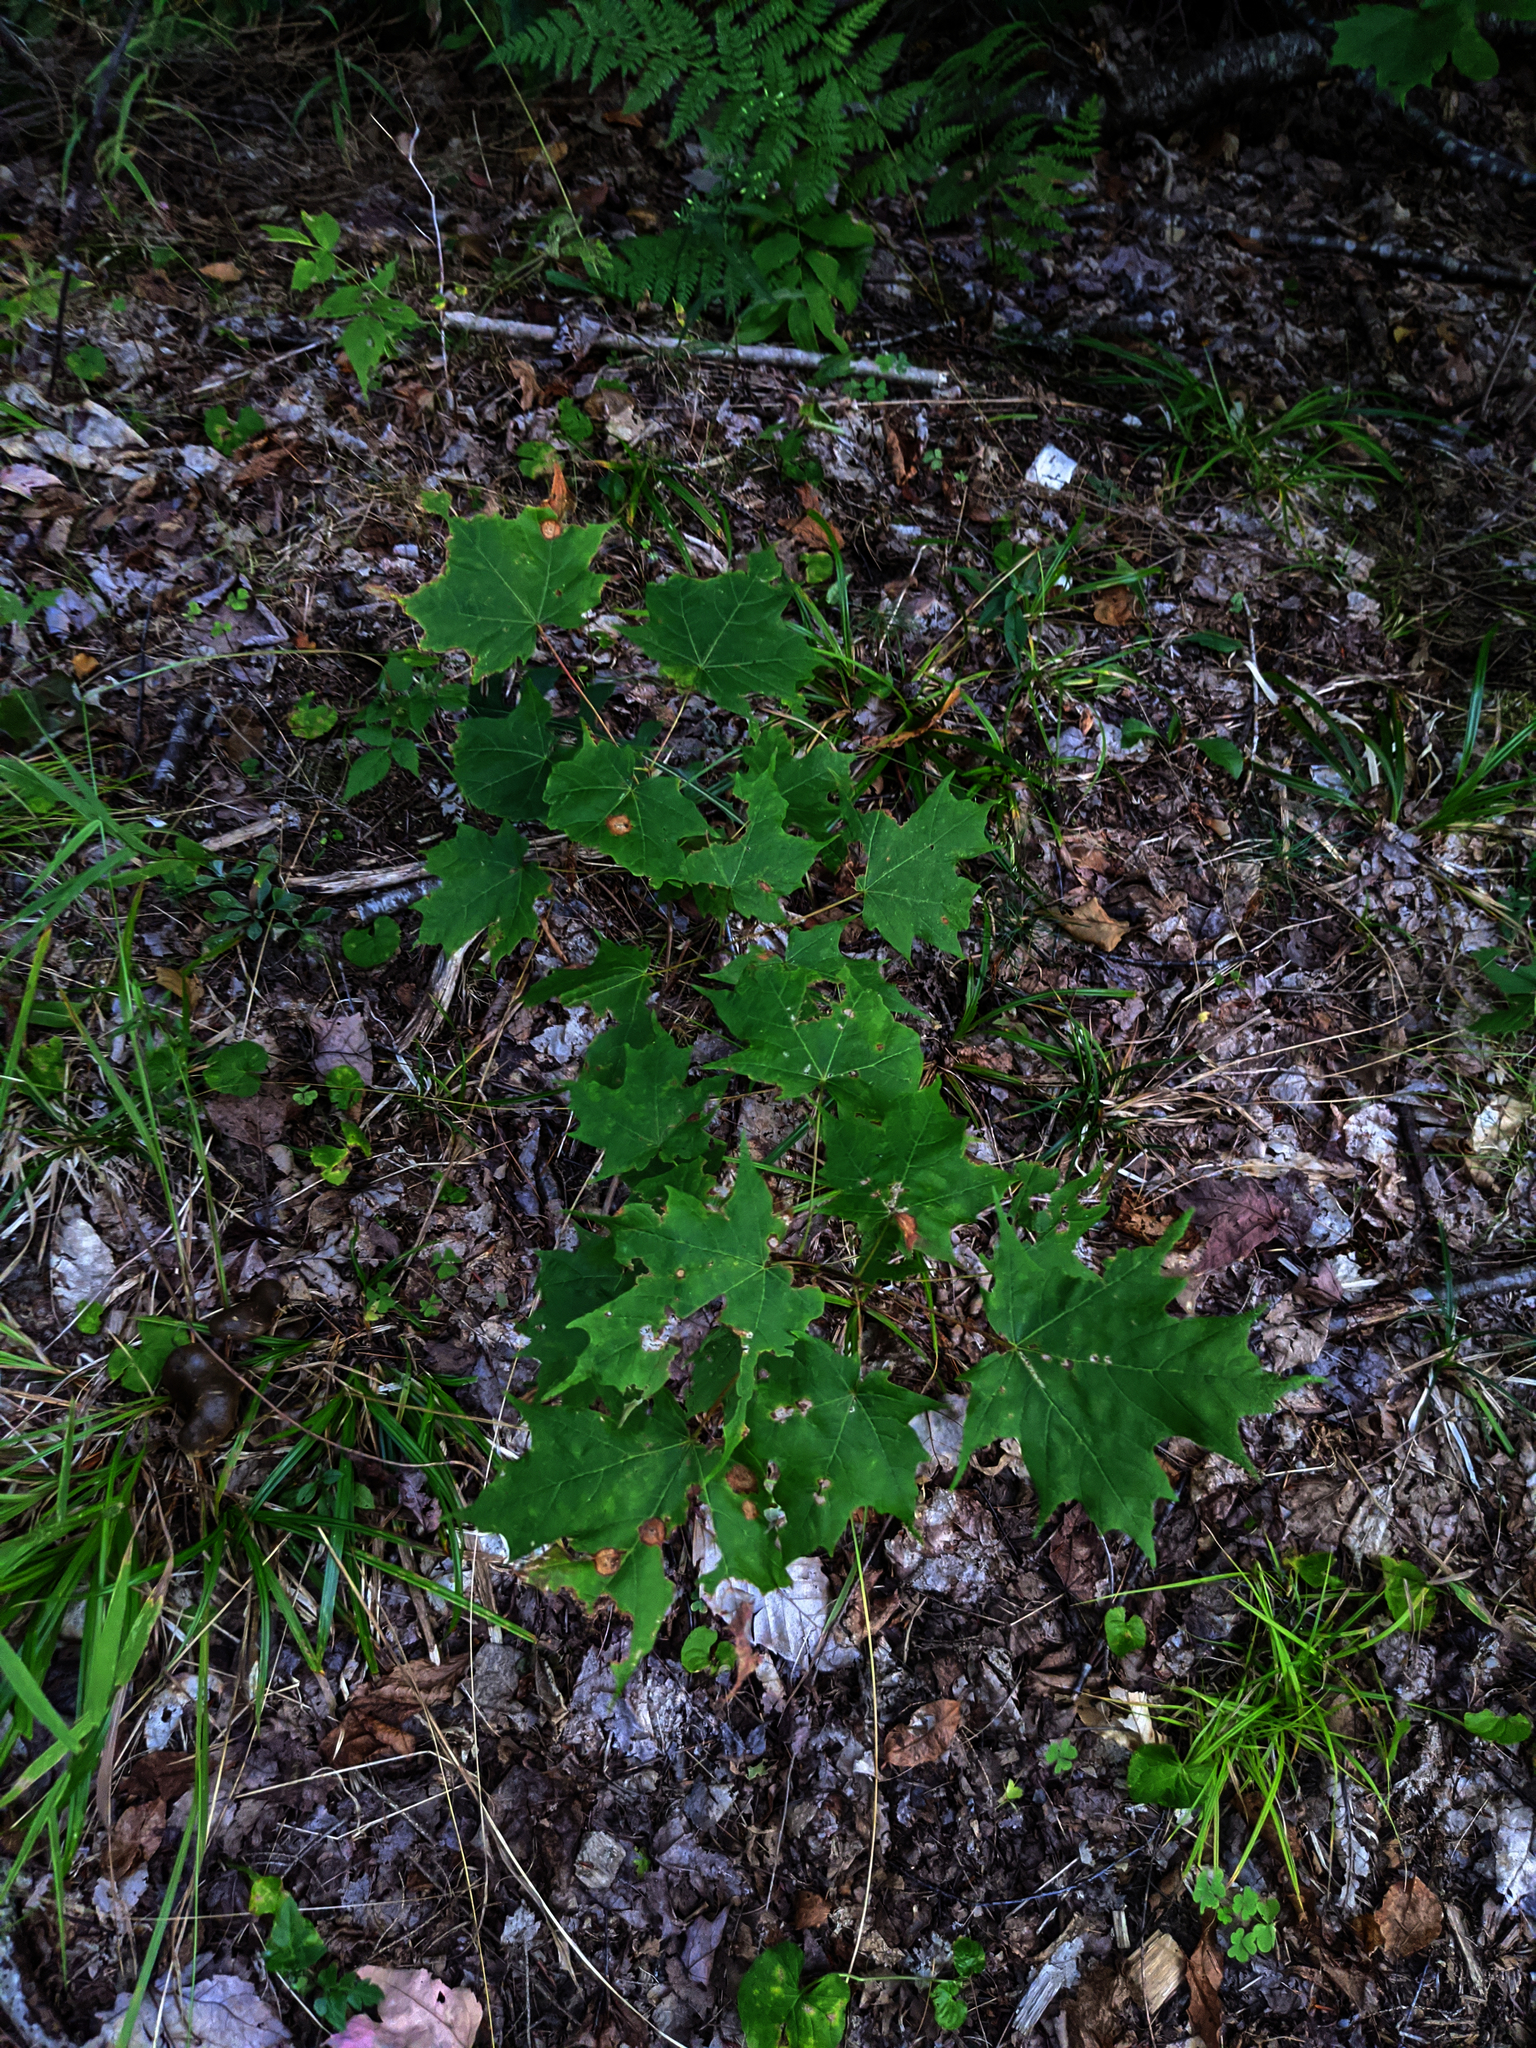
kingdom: Plantae
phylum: Tracheophyta
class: Magnoliopsida
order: Sapindales
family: Sapindaceae
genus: Acer
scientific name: Acer platanoides
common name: Norway maple
